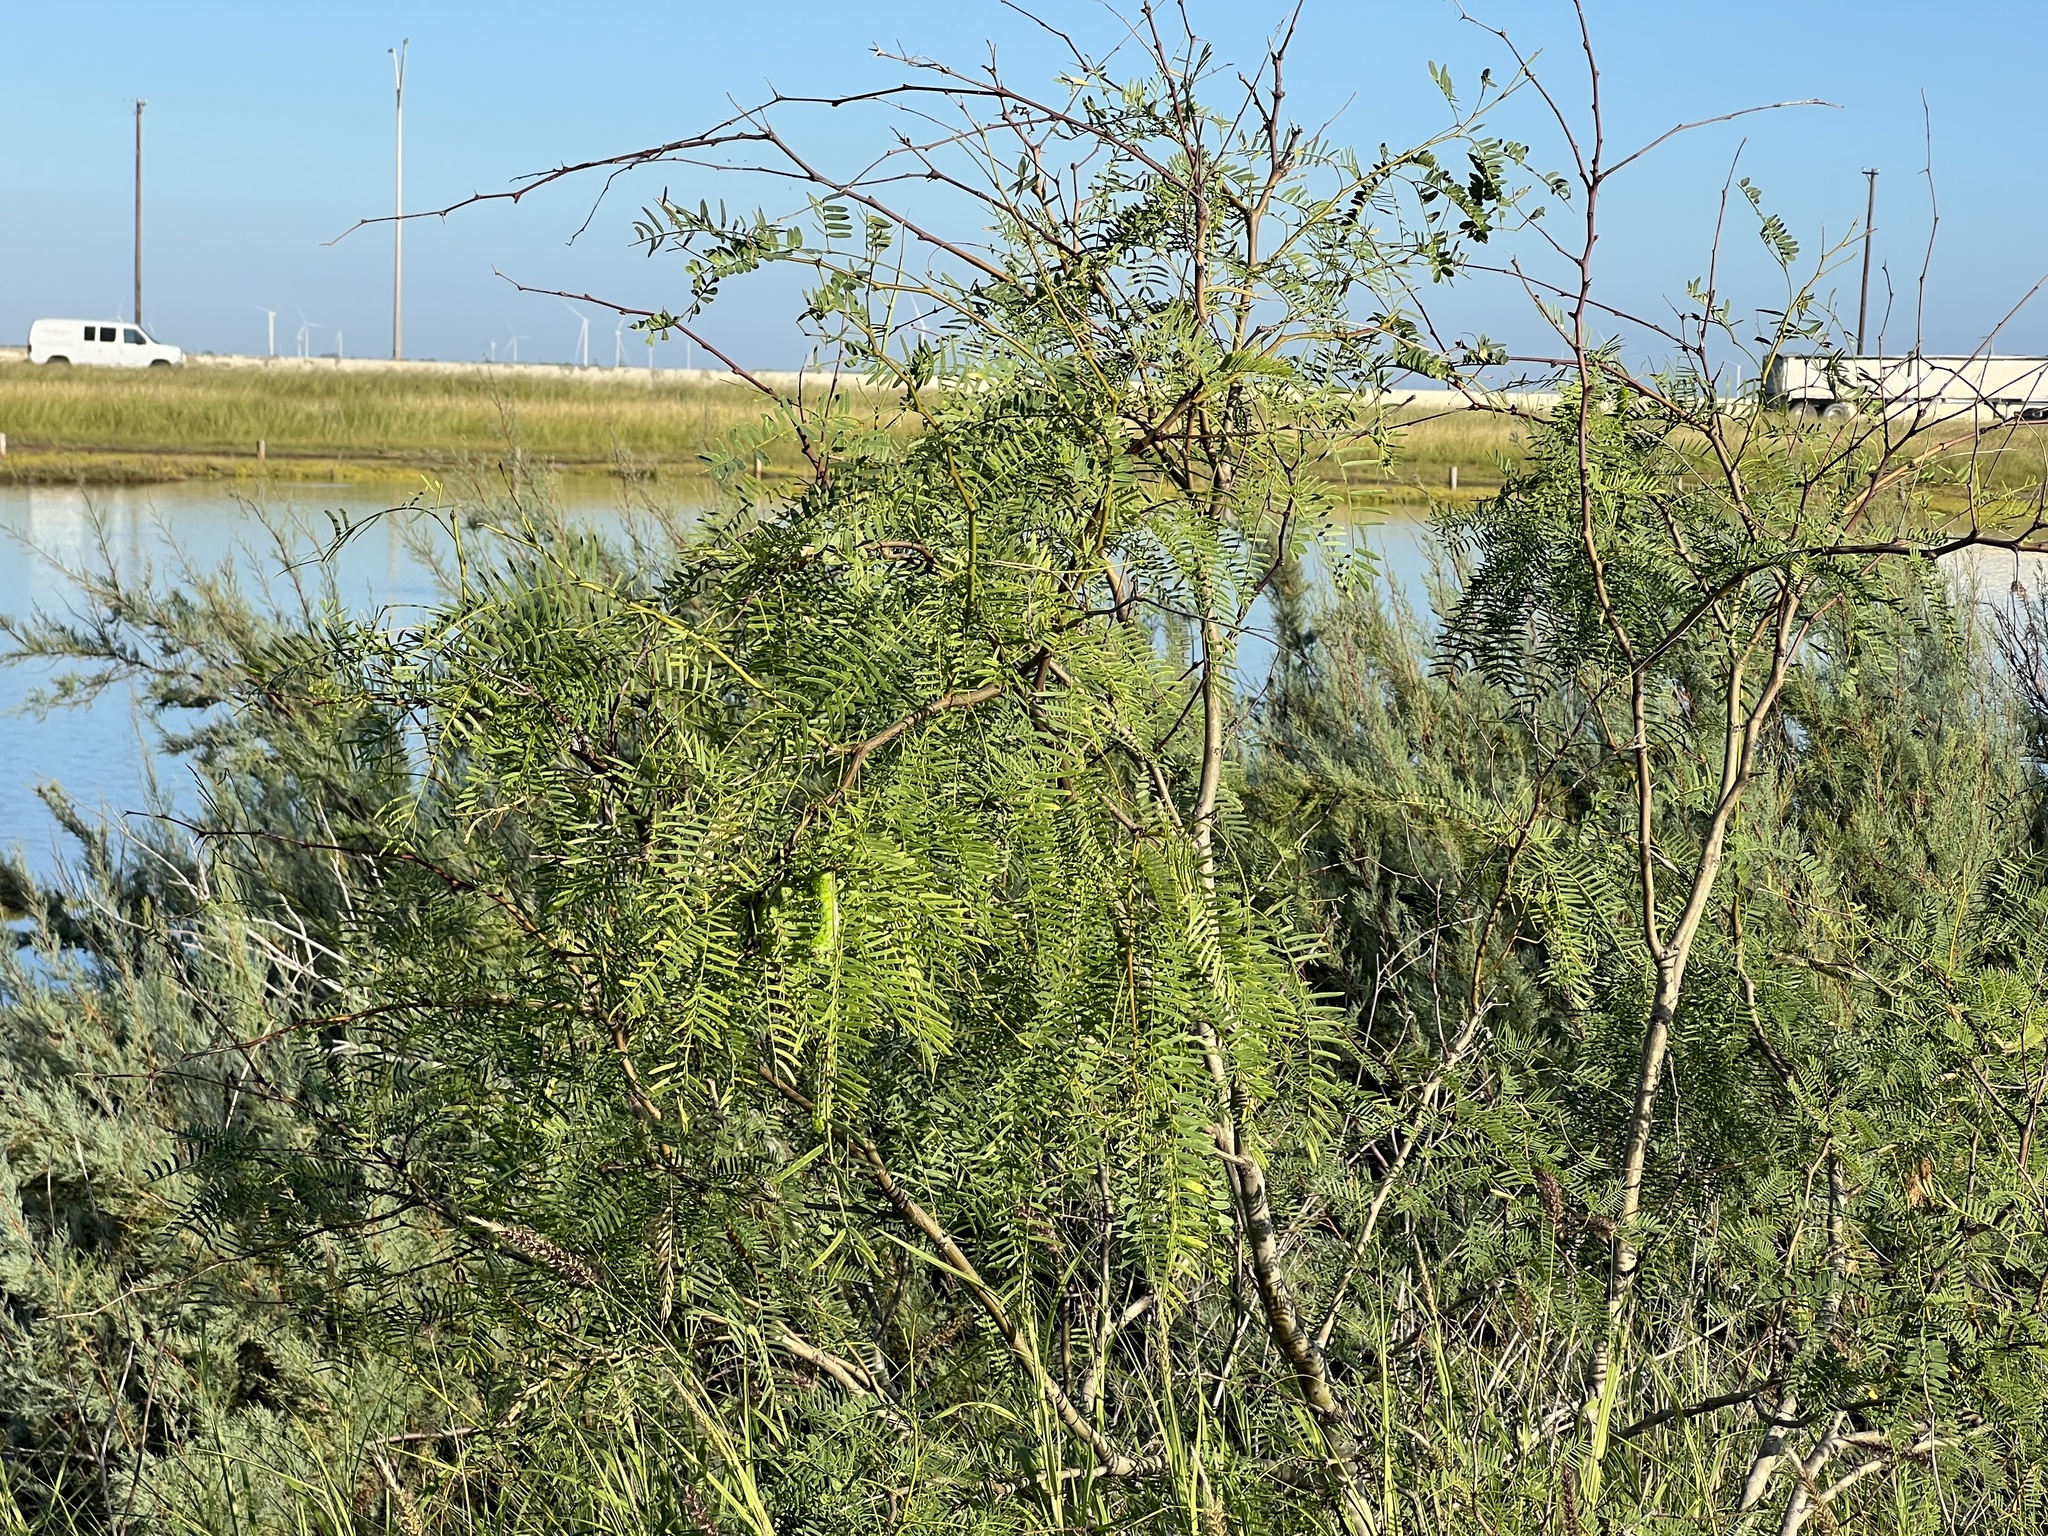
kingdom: Plantae
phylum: Tracheophyta
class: Magnoliopsida
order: Fabales
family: Fabaceae
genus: Prosopis
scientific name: Prosopis glandulosa
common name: Honey mesquite
